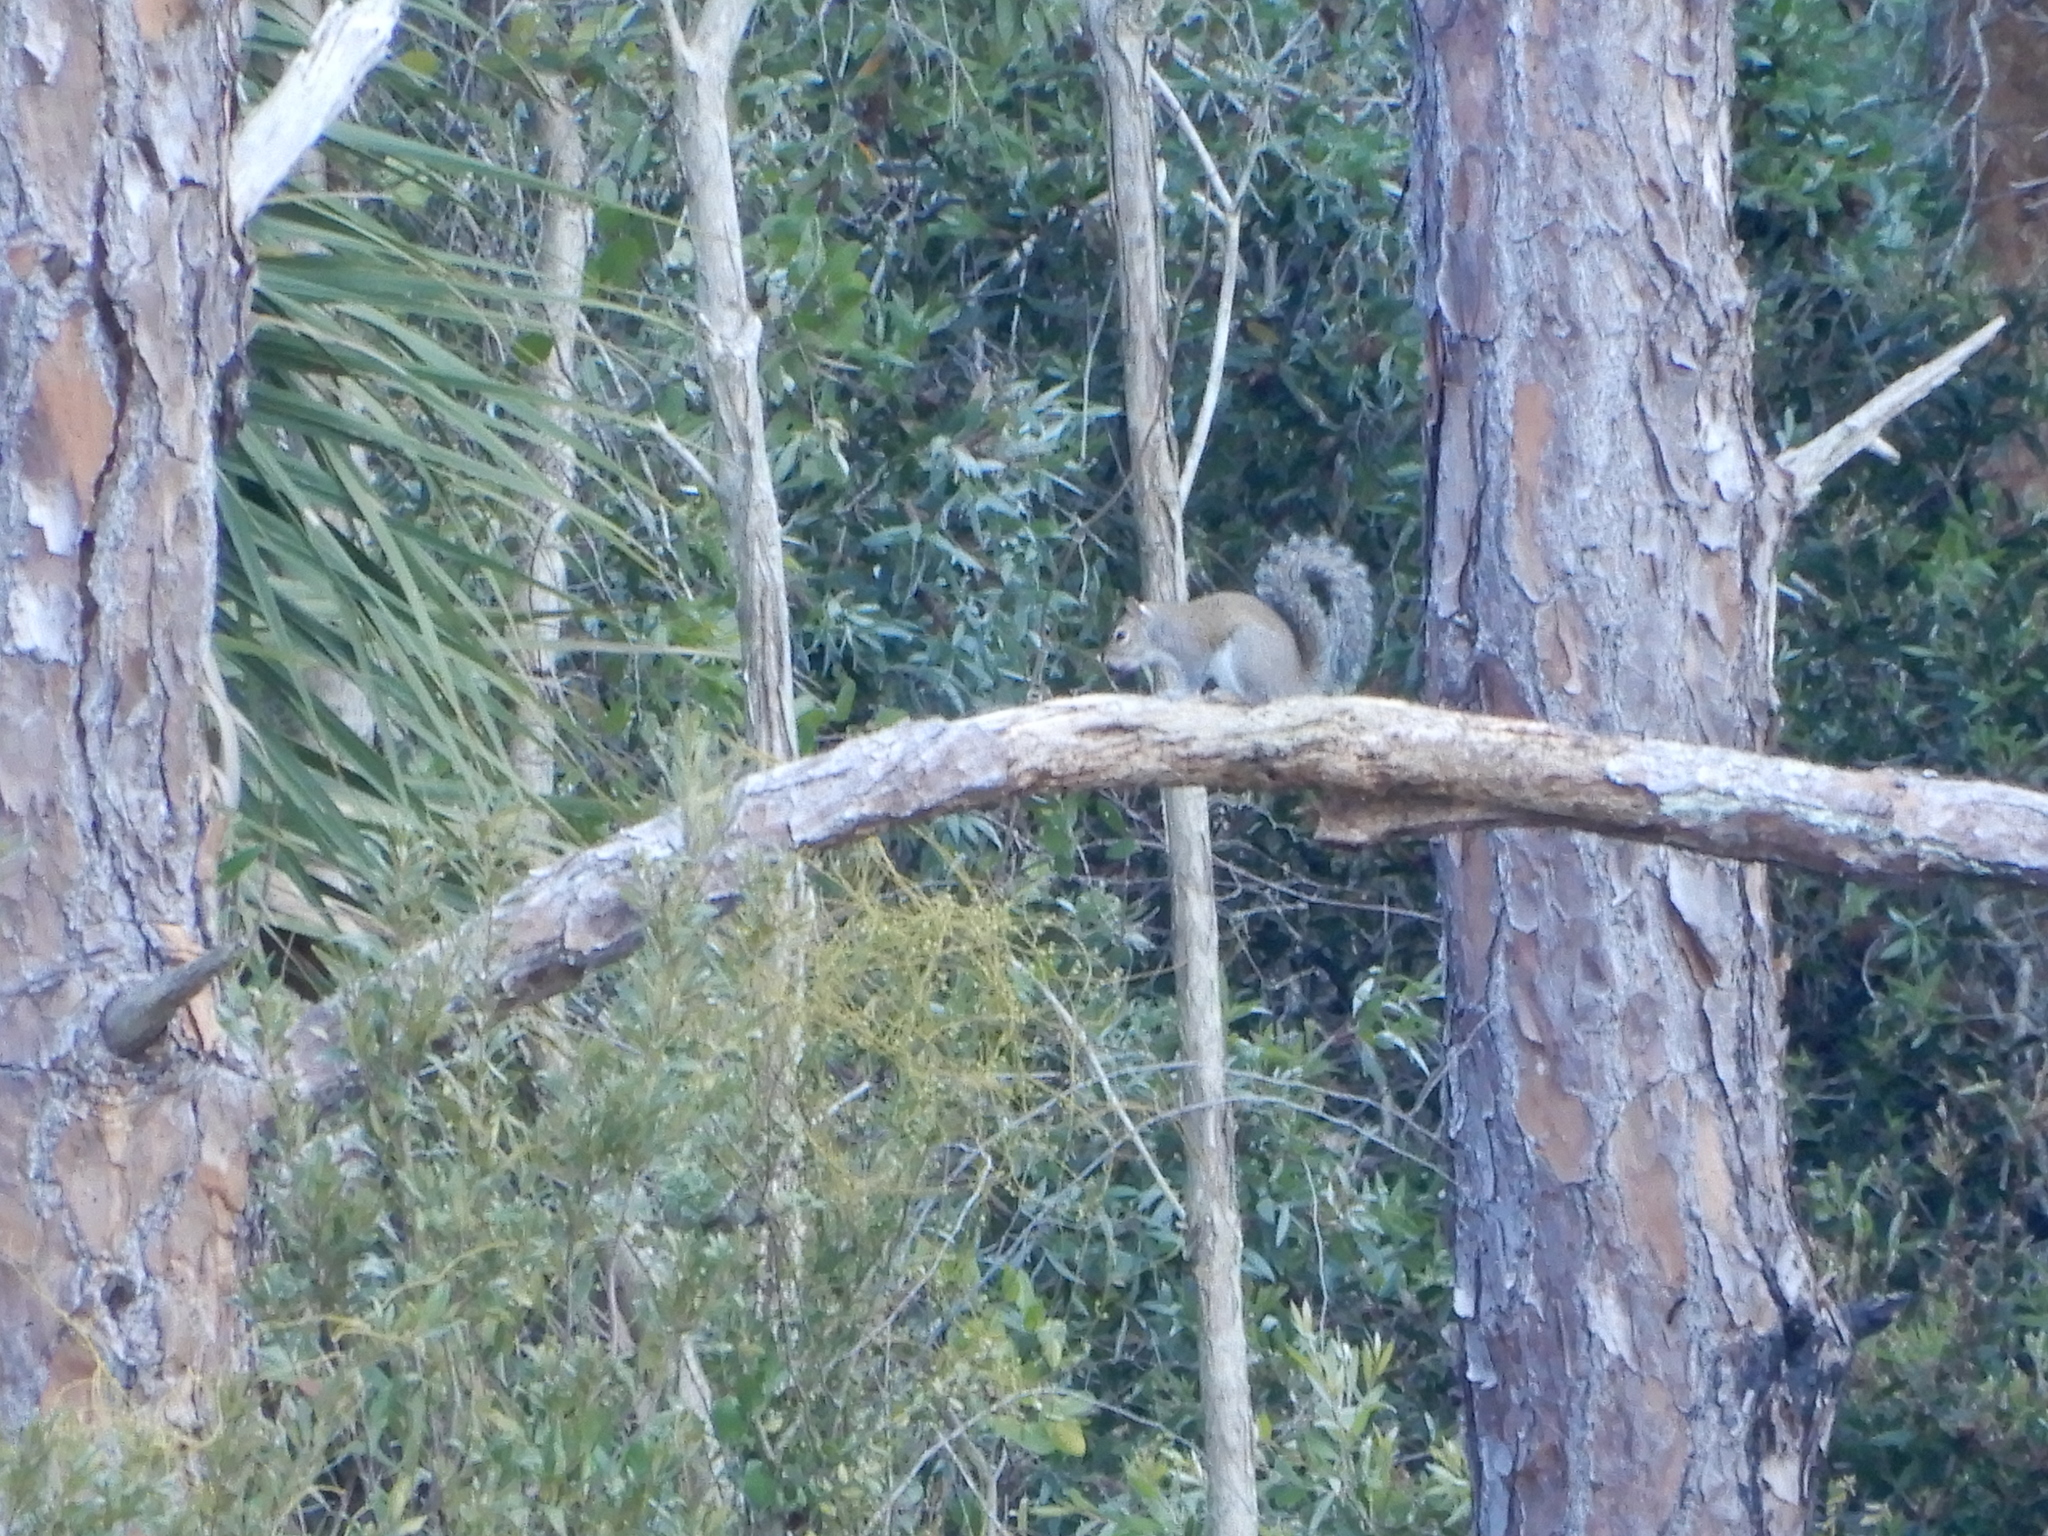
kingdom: Animalia
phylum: Chordata
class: Mammalia
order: Rodentia
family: Sciuridae
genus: Sciurus
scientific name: Sciurus carolinensis
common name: Eastern gray squirrel
